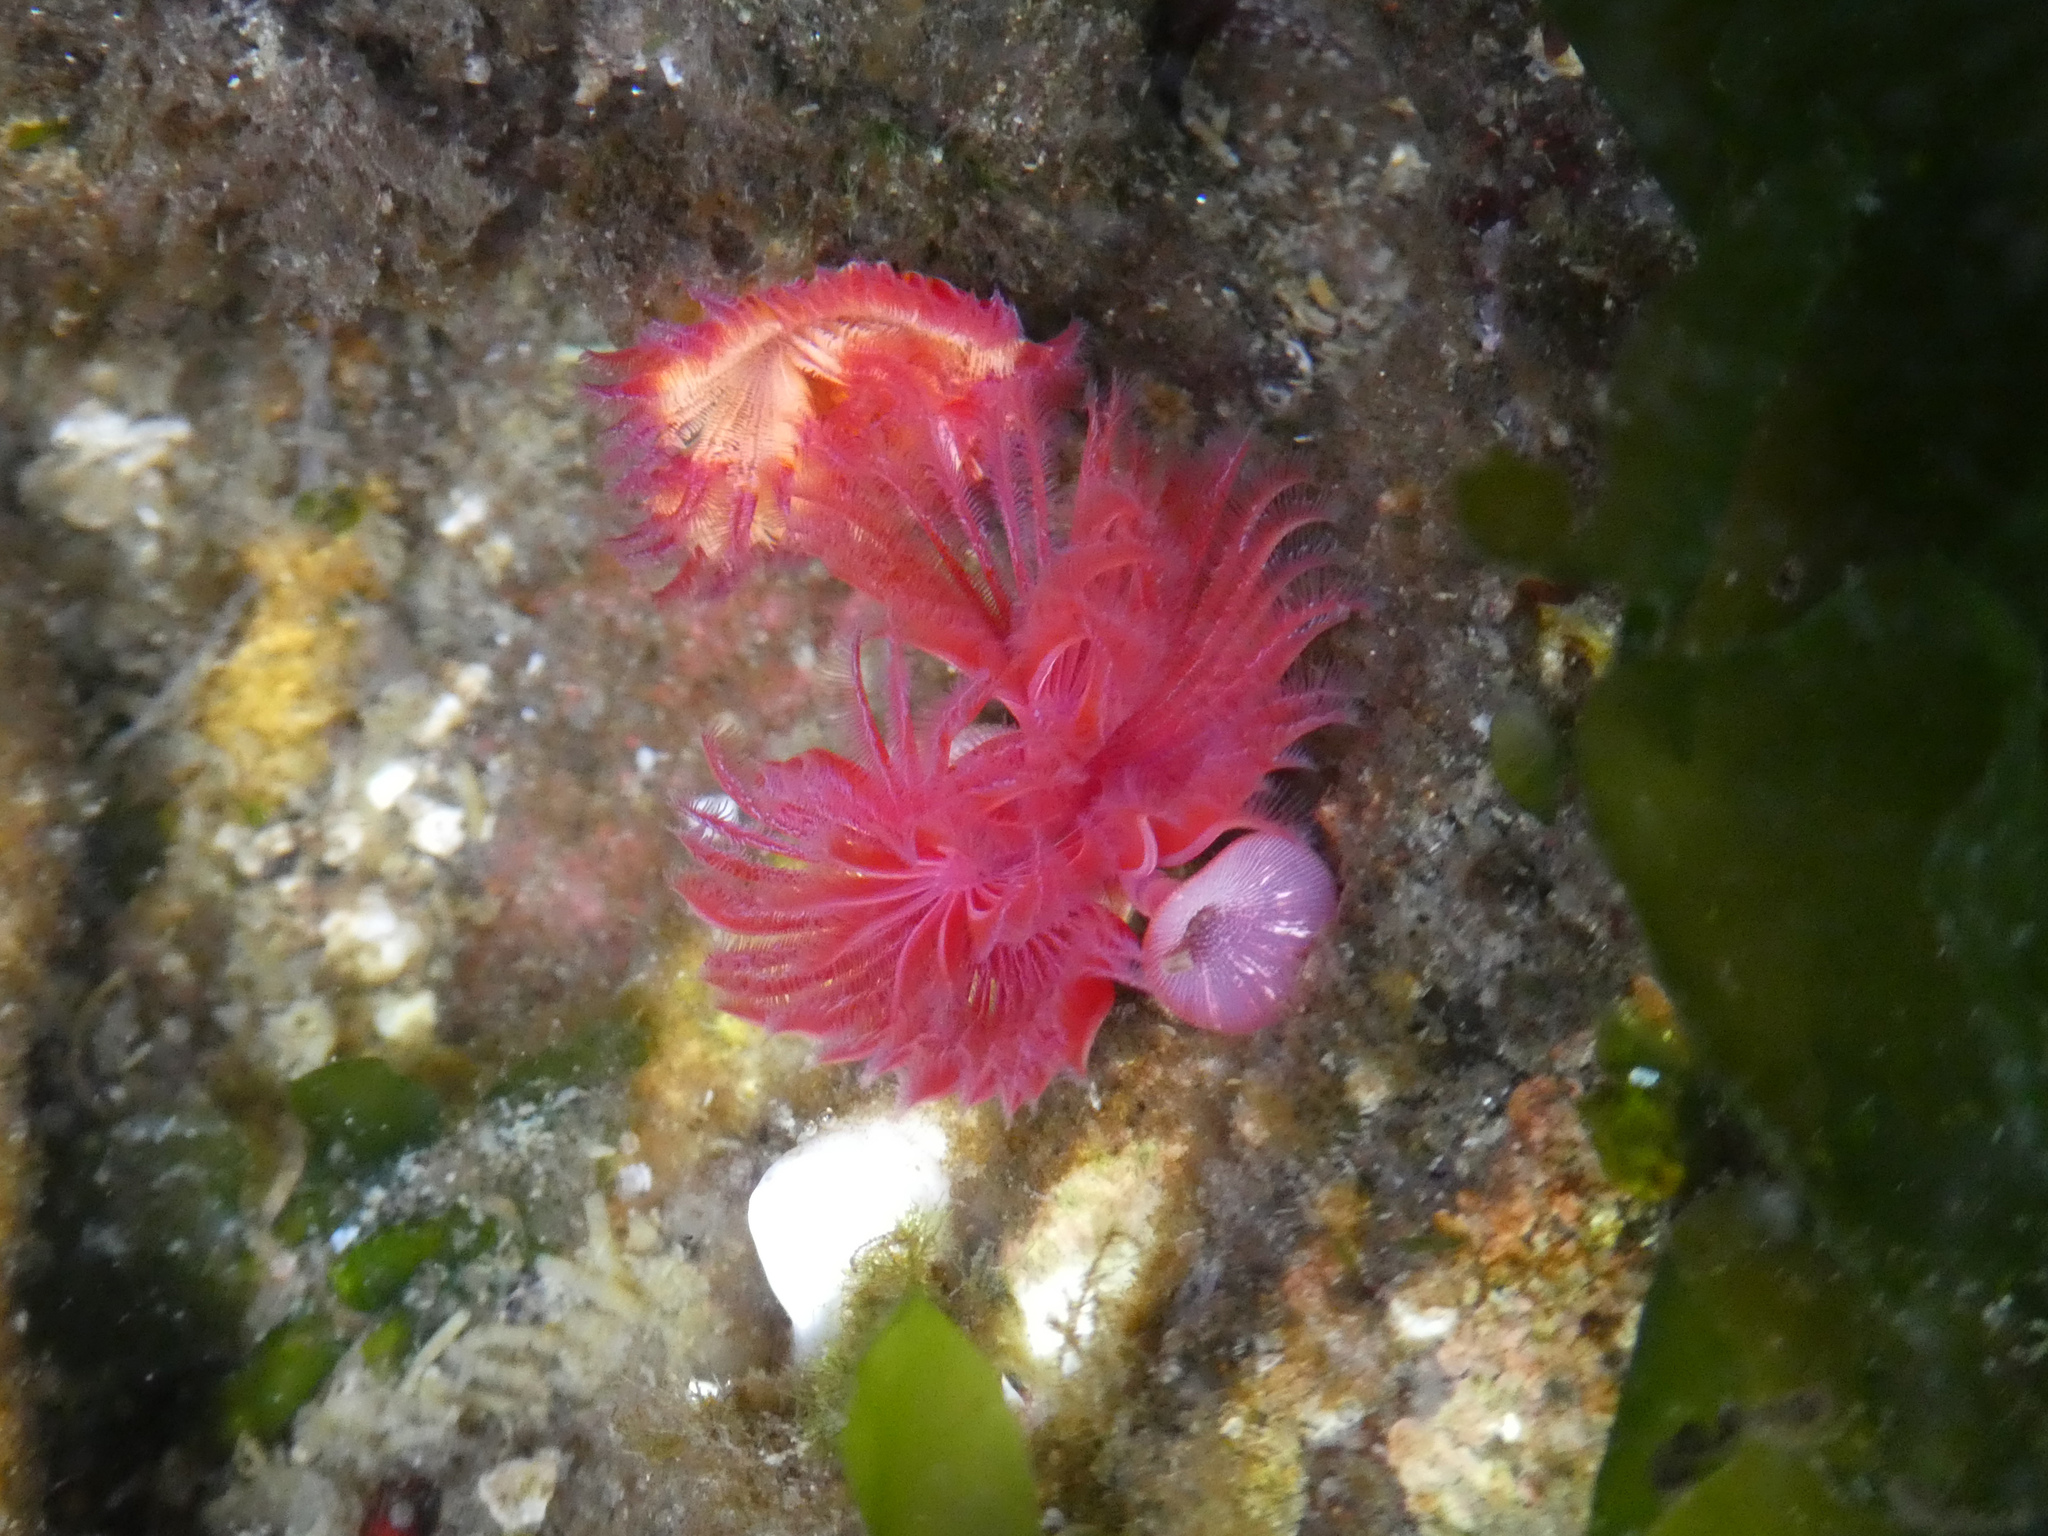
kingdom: Animalia
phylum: Annelida
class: Polychaeta
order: Sabellida
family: Serpulidae
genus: Serpula
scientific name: Serpula columbiana
